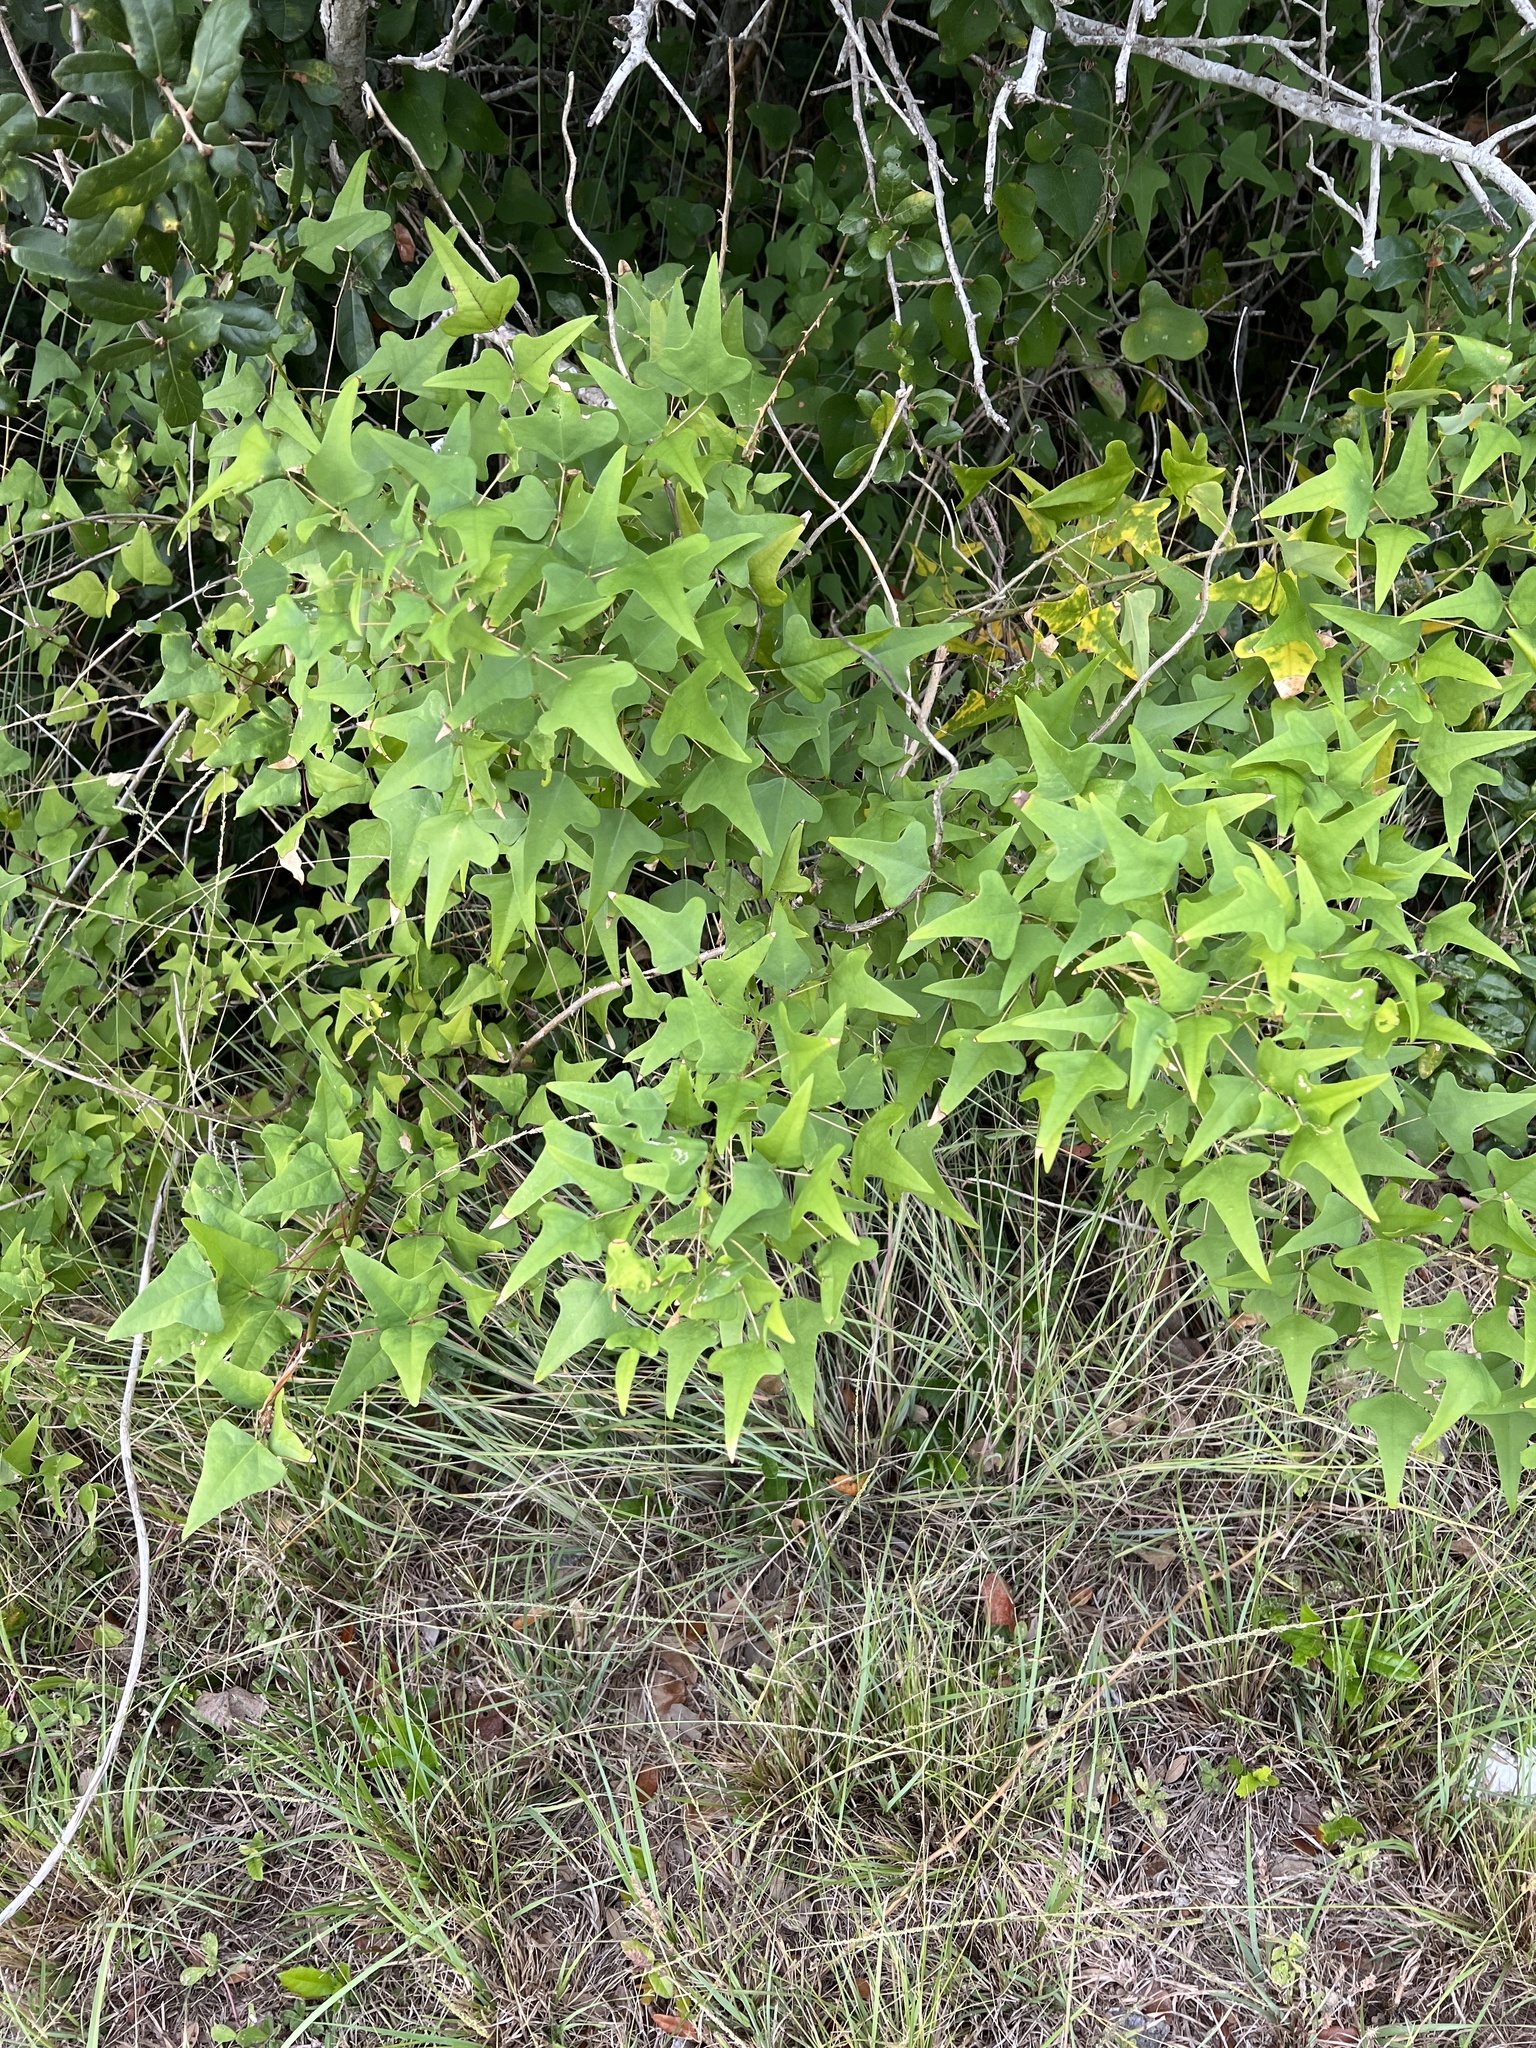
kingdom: Plantae
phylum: Tracheophyta
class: Magnoliopsida
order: Fabales
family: Fabaceae
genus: Erythrina
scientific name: Erythrina herbacea
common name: Coral-bean
